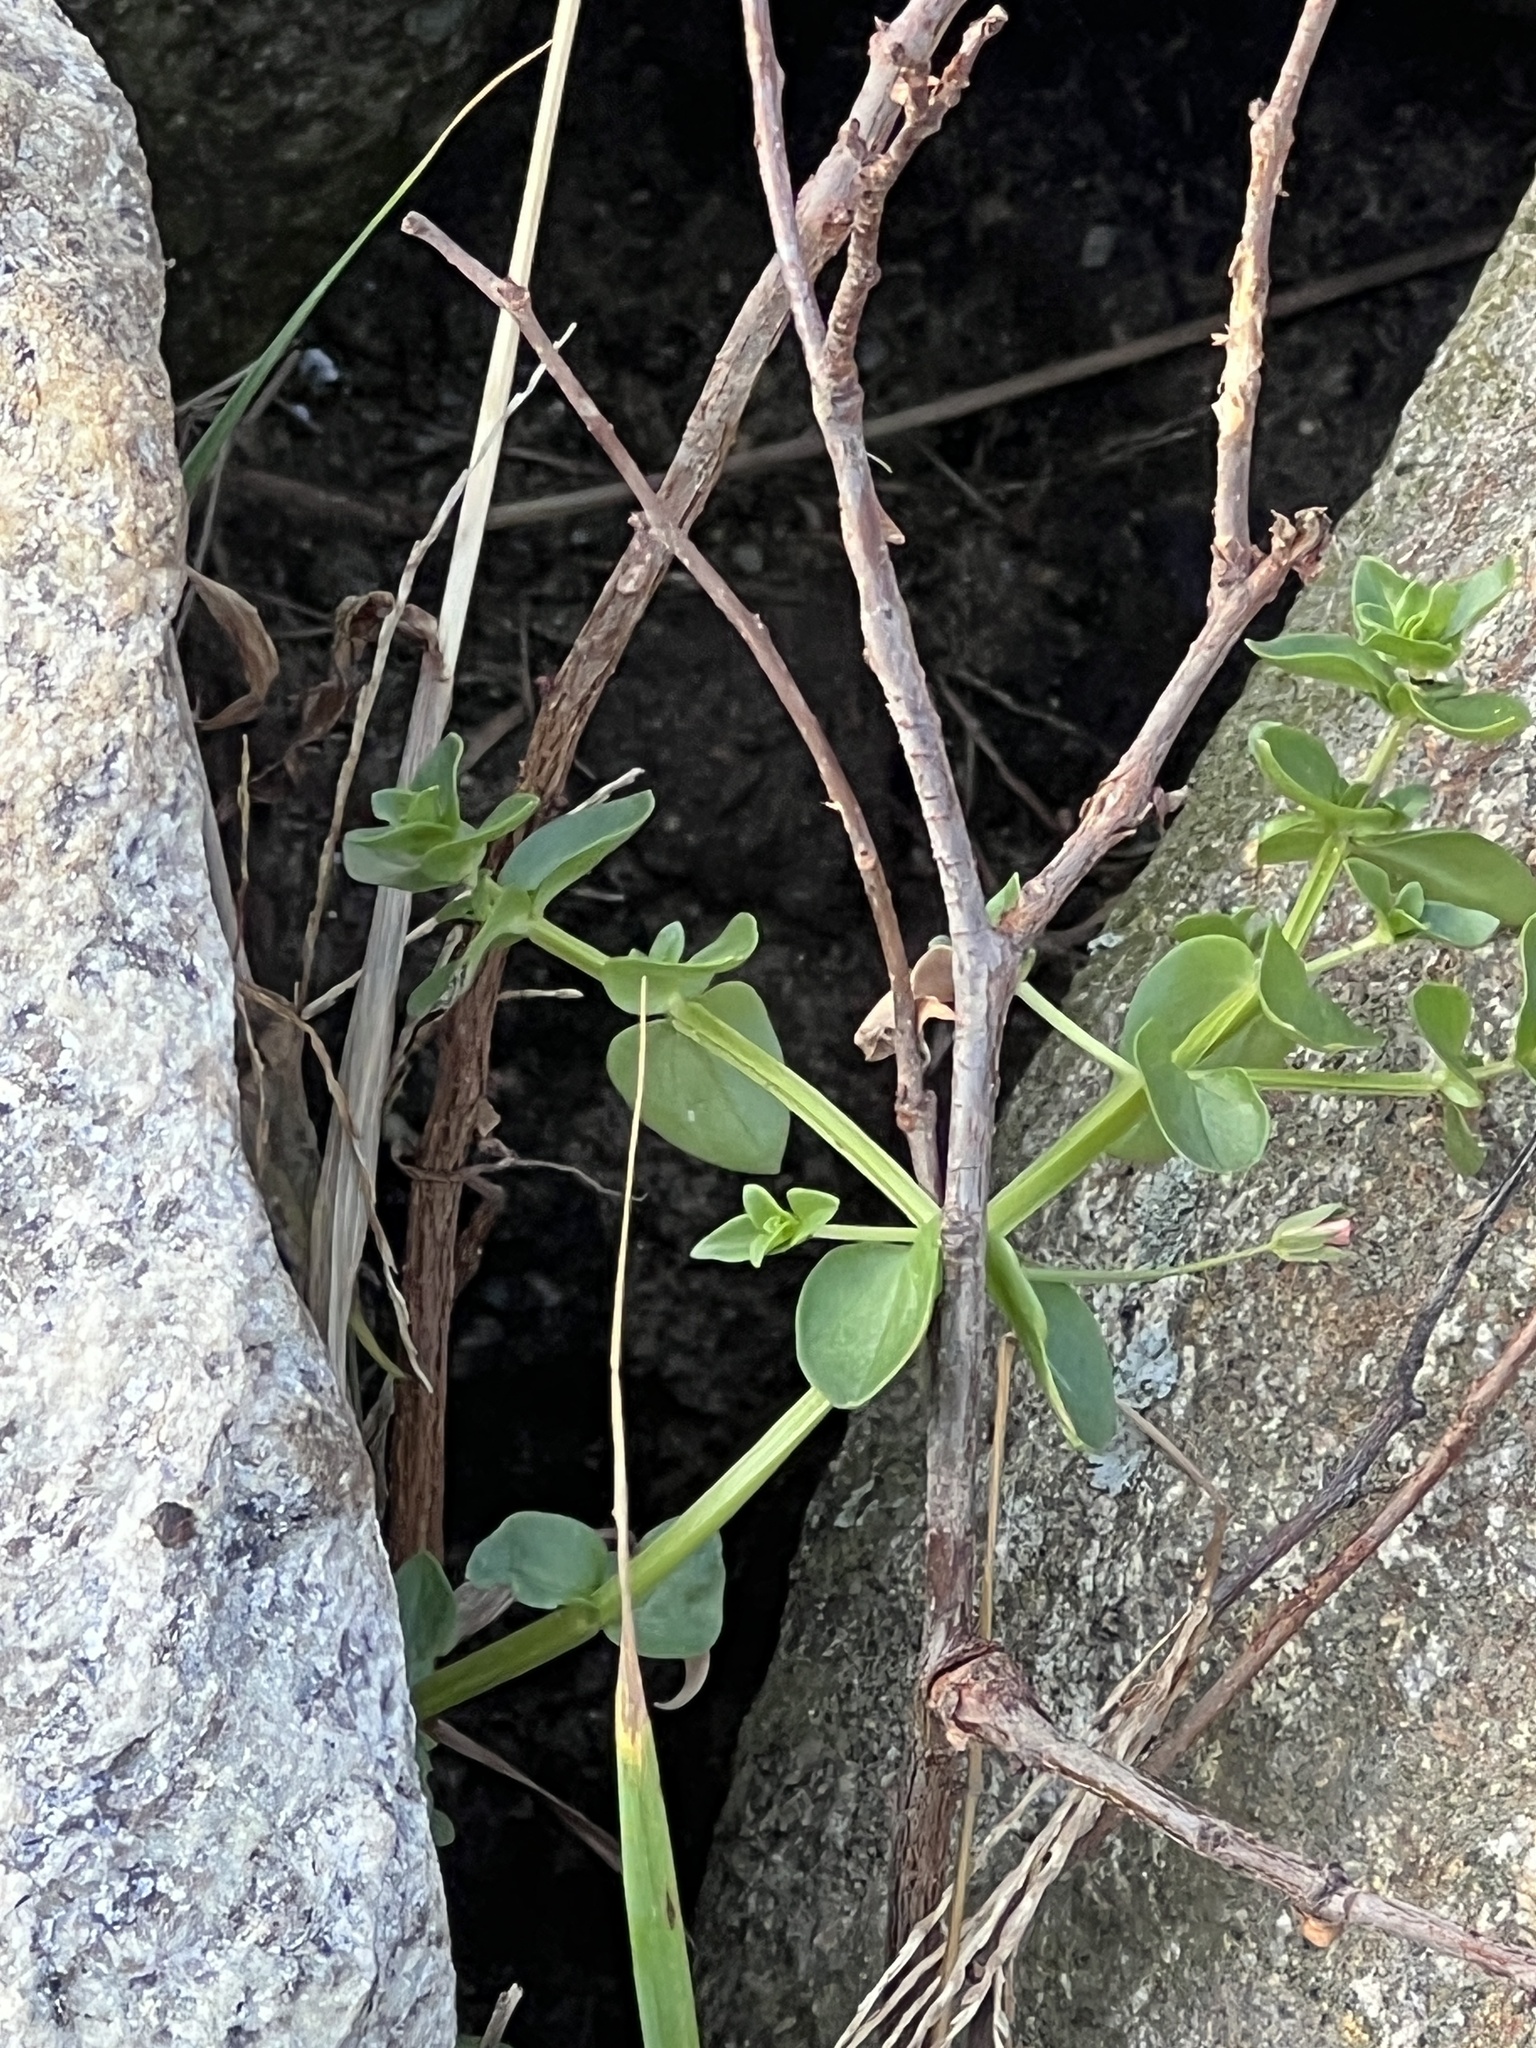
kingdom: Plantae
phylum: Tracheophyta
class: Magnoliopsida
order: Ericales
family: Primulaceae
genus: Lysimachia
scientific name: Lysimachia arvensis
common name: Scarlet pimpernel
